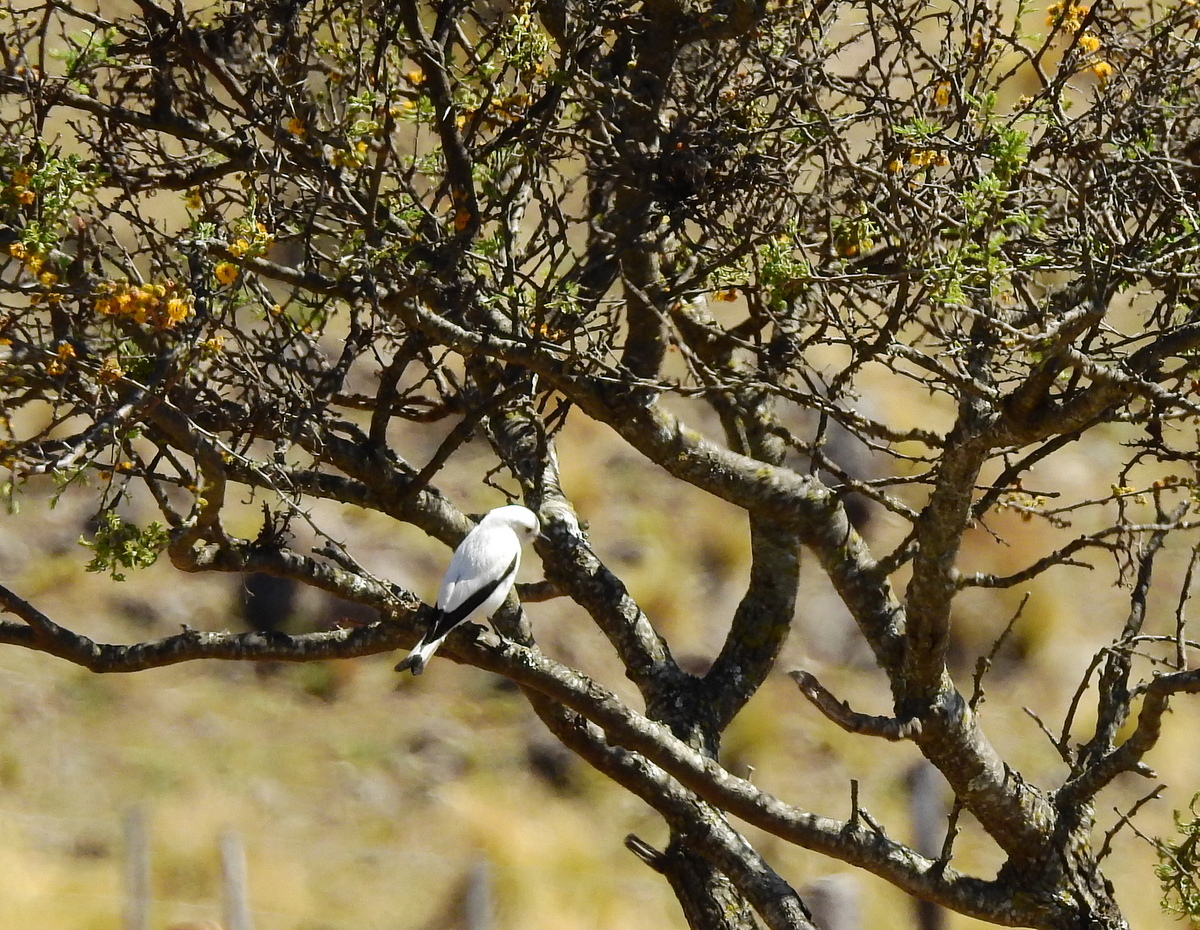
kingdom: Animalia
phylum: Chordata
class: Aves
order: Passeriformes
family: Tyrannidae
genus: Xolmis
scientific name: Xolmis irupero
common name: White monjita
